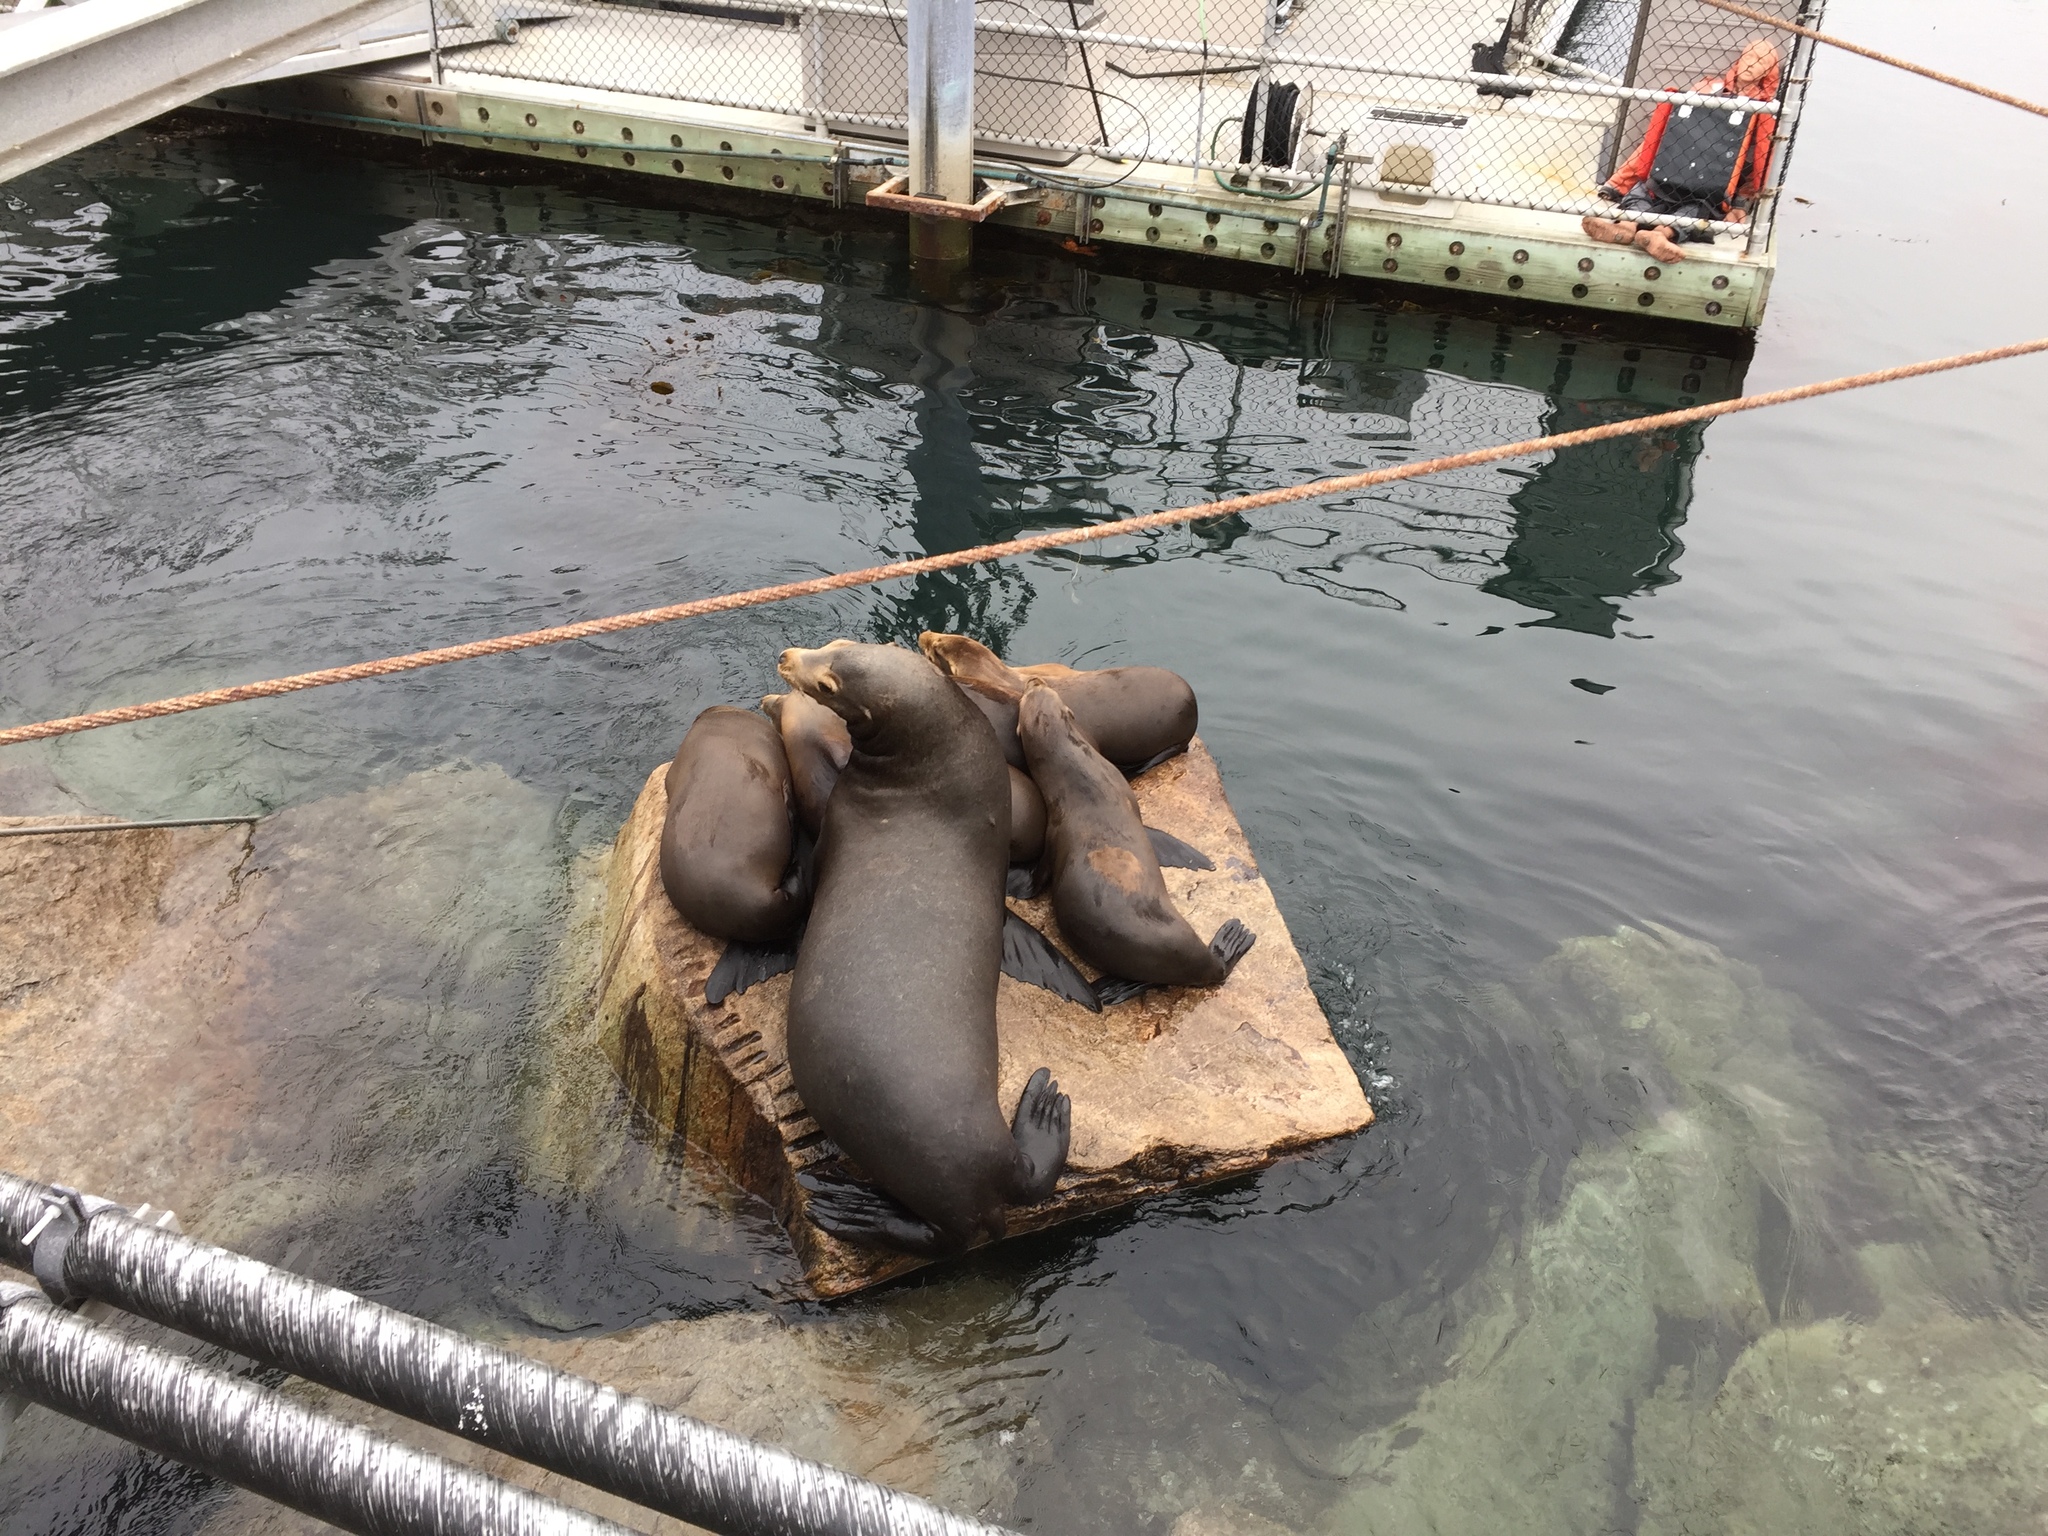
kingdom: Animalia
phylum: Chordata
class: Mammalia
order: Carnivora
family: Otariidae
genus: Zalophus
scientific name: Zalophus californianus
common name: California sea lion
